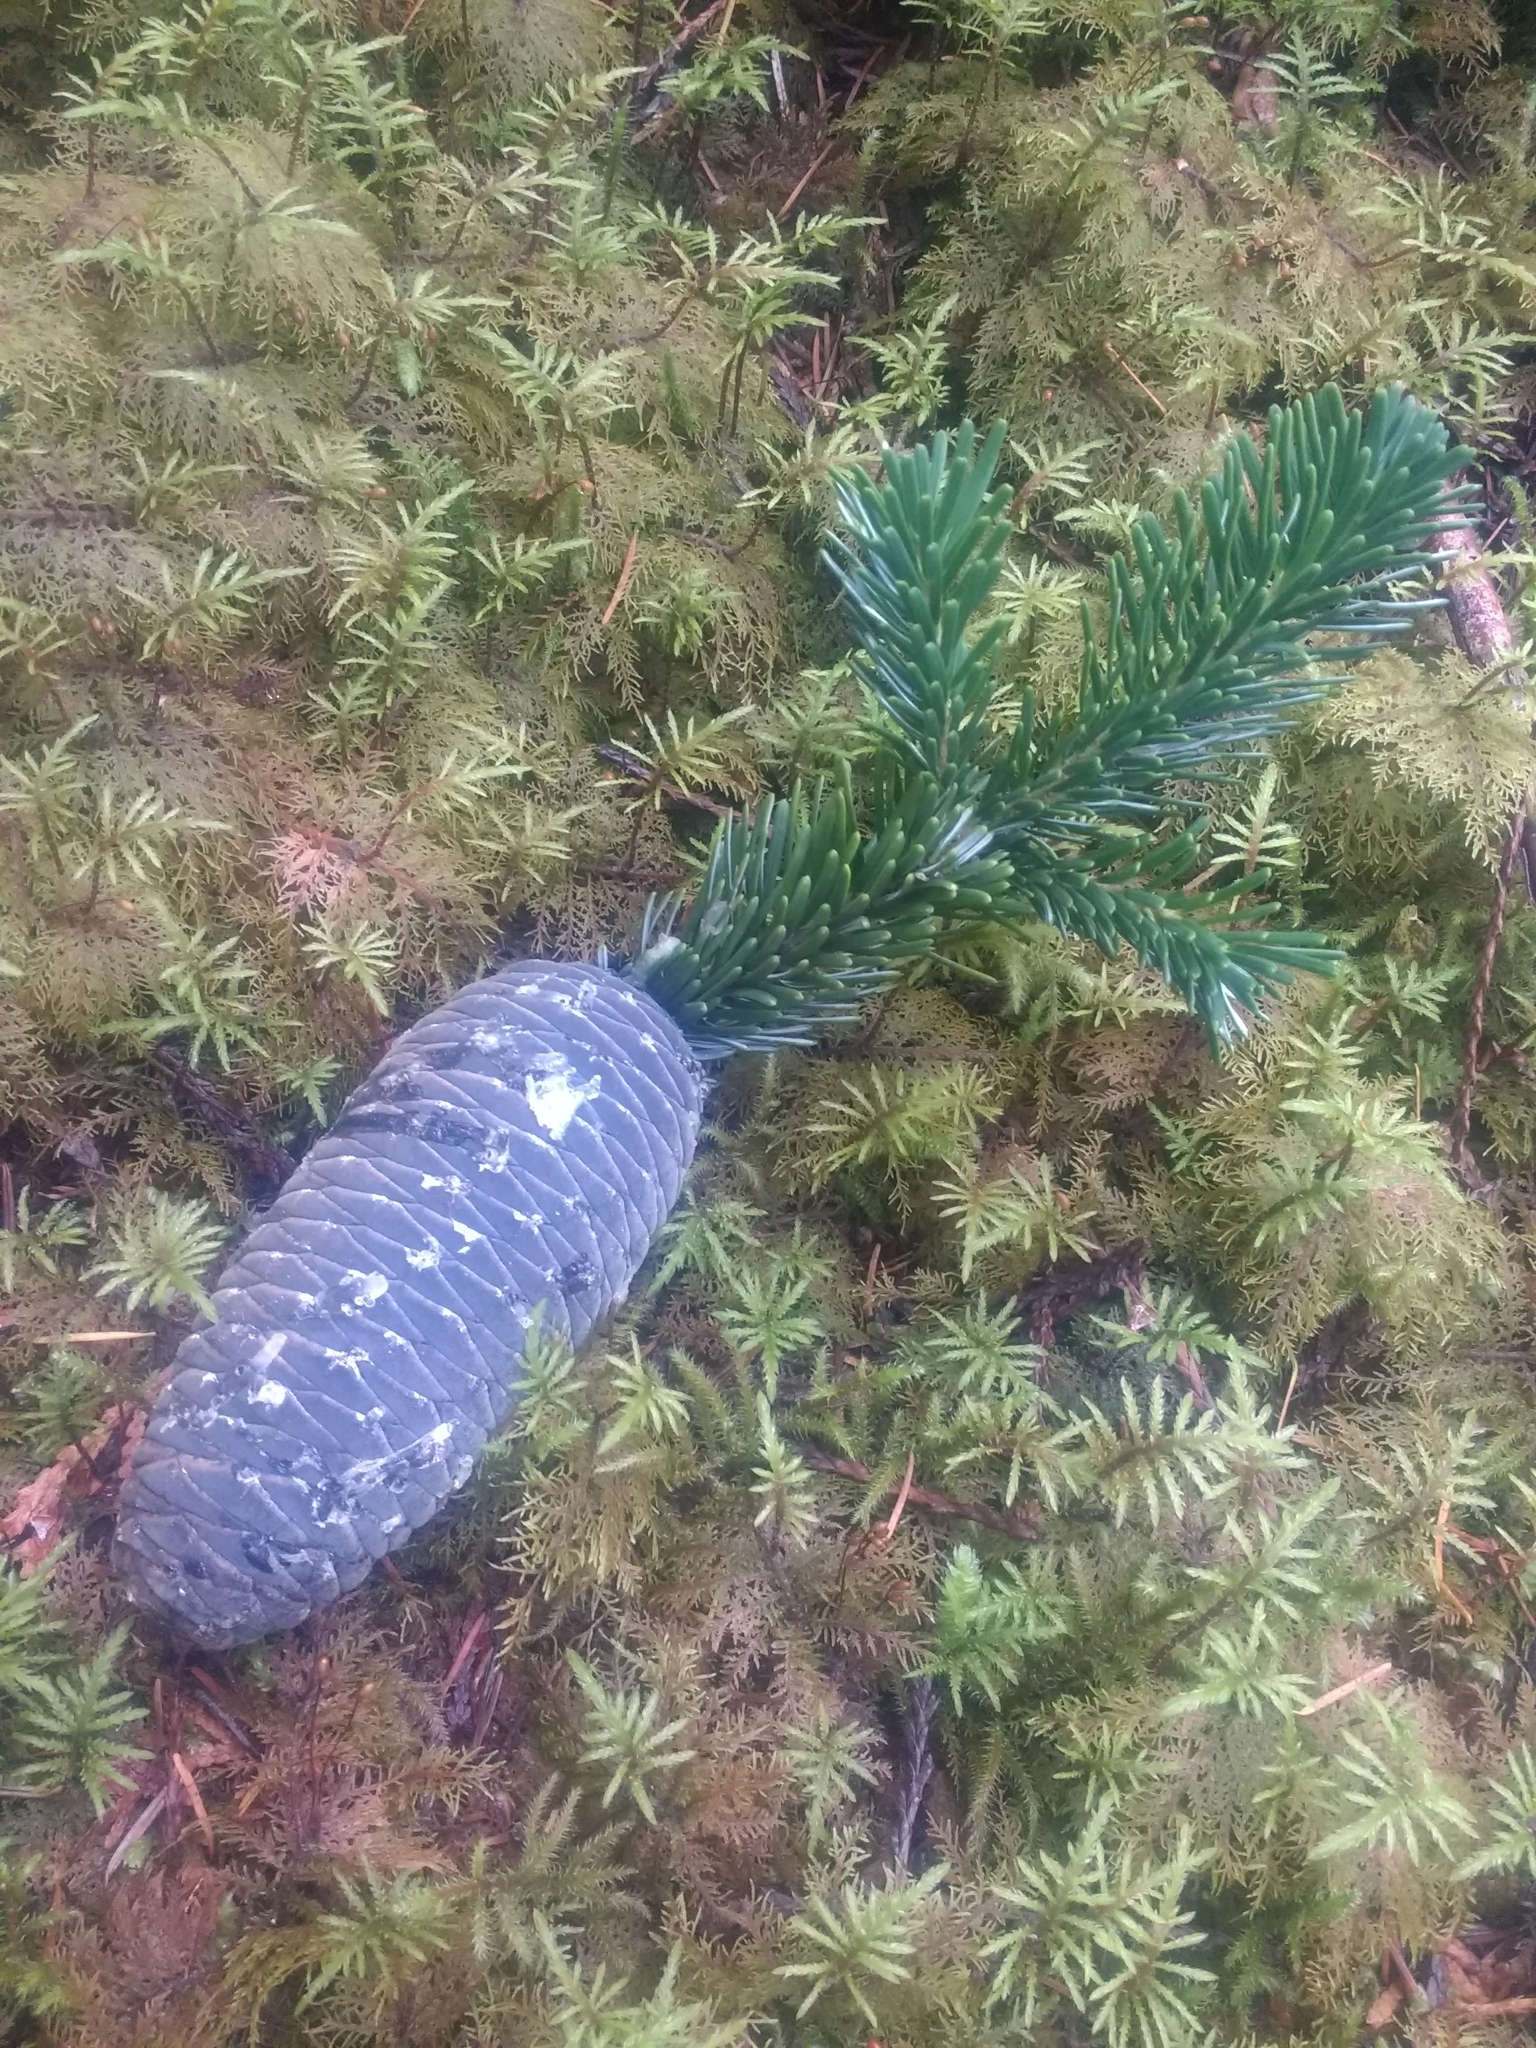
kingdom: Plantae
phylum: Tracheophyta
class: Pinopsida
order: Pinales
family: Pinaceae
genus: Abies
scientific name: Abies amabilis
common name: Pacific silver fir
